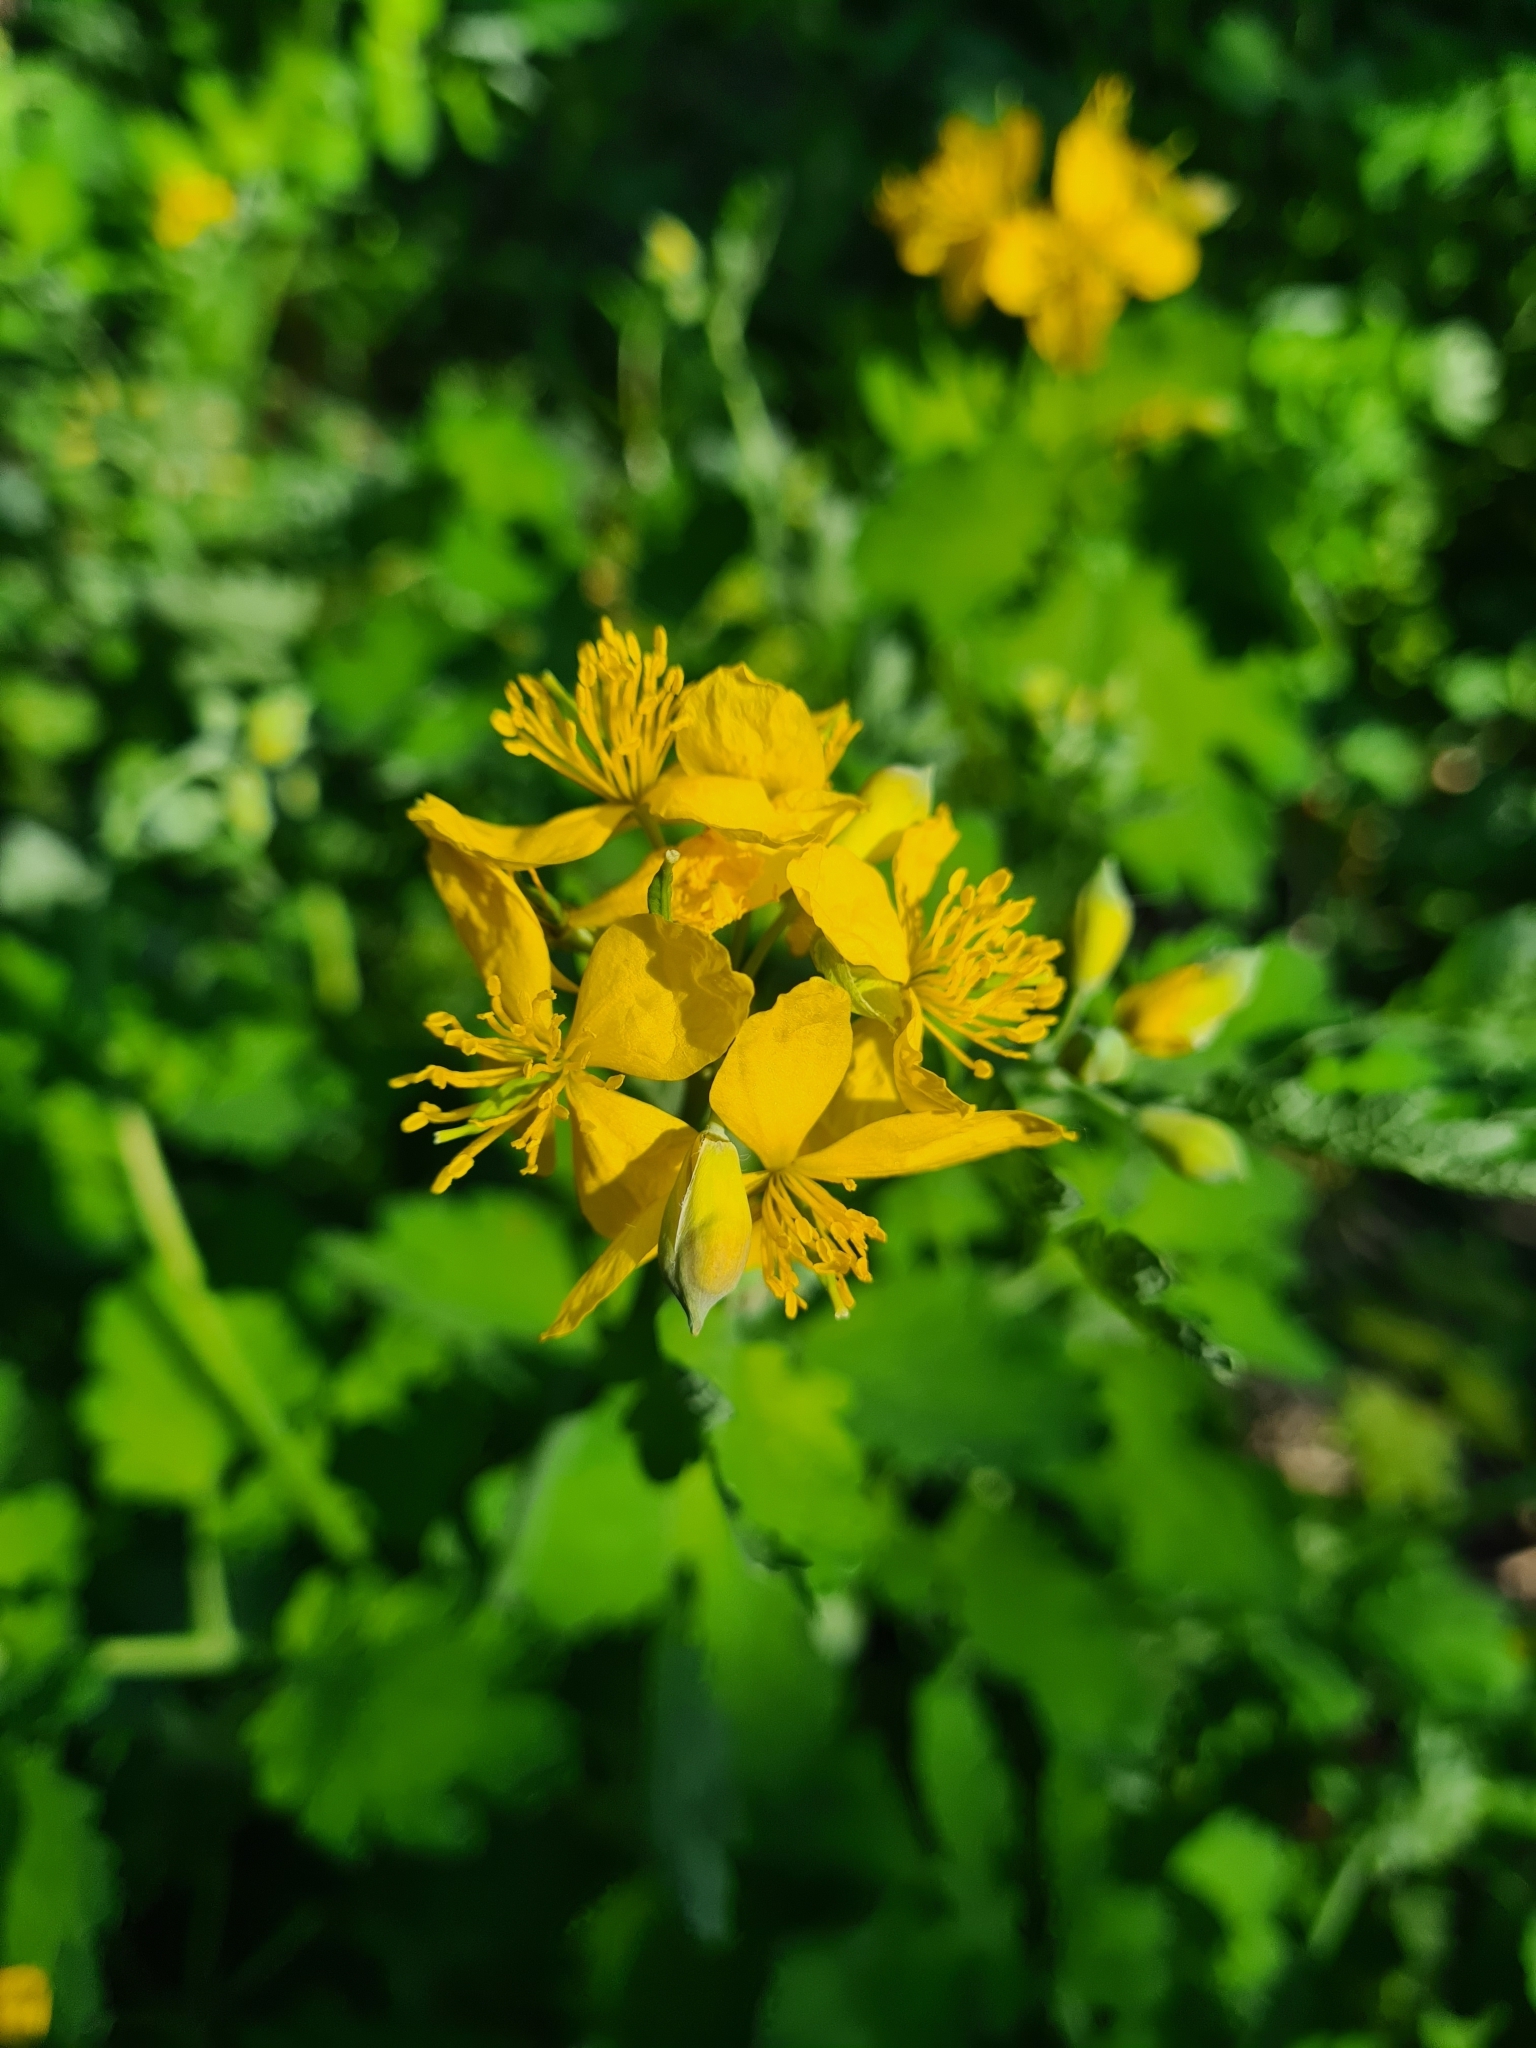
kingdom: Plantae
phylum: Tracheophyta
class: Magnoliopsida
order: Ranunculales
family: Papaveraceae
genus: Chelidonium
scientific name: Chelidonium majus
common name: Greater celandine
